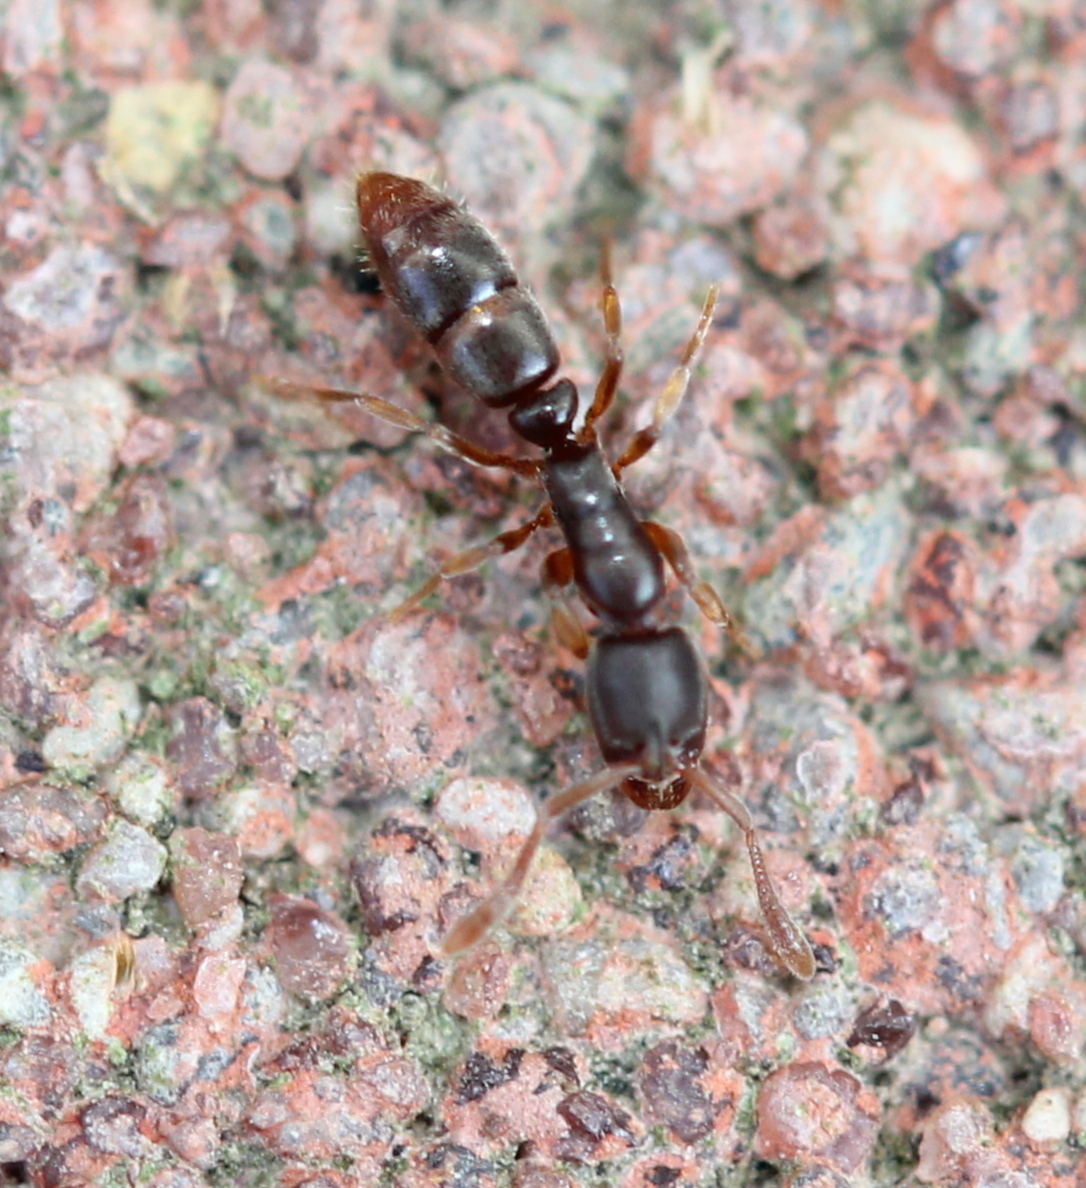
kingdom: Animalia
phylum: Arthropoda
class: Insecta
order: Hymenoptera
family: Formicidae
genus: Ponera
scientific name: Ponera pennsylvanica
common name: Pennsylvania ponera
